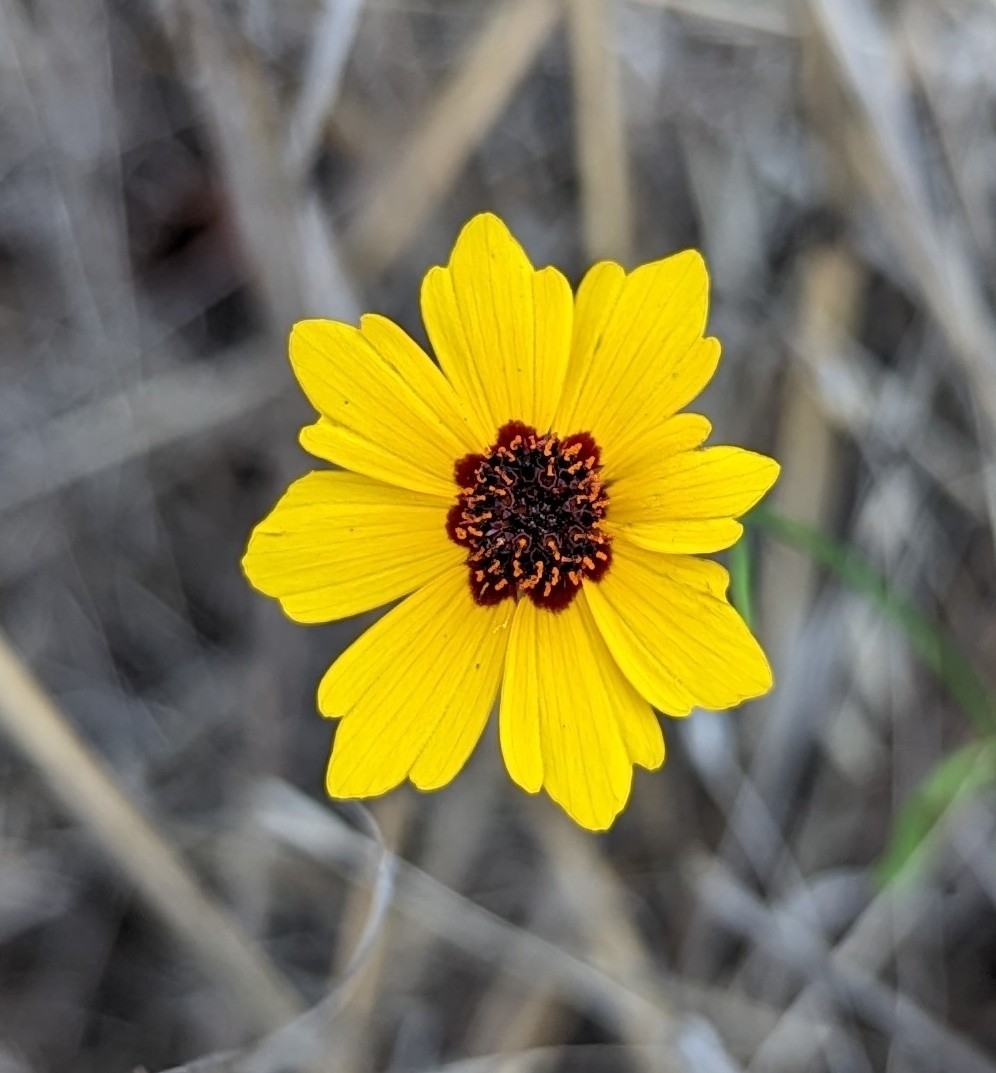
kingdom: Plantae
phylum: Tracheophyta
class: Magnoliopsida
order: Asterales
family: Asteraceae
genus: Coreopsis
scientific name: Coreopsis tinctoria
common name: Garden tickseed
